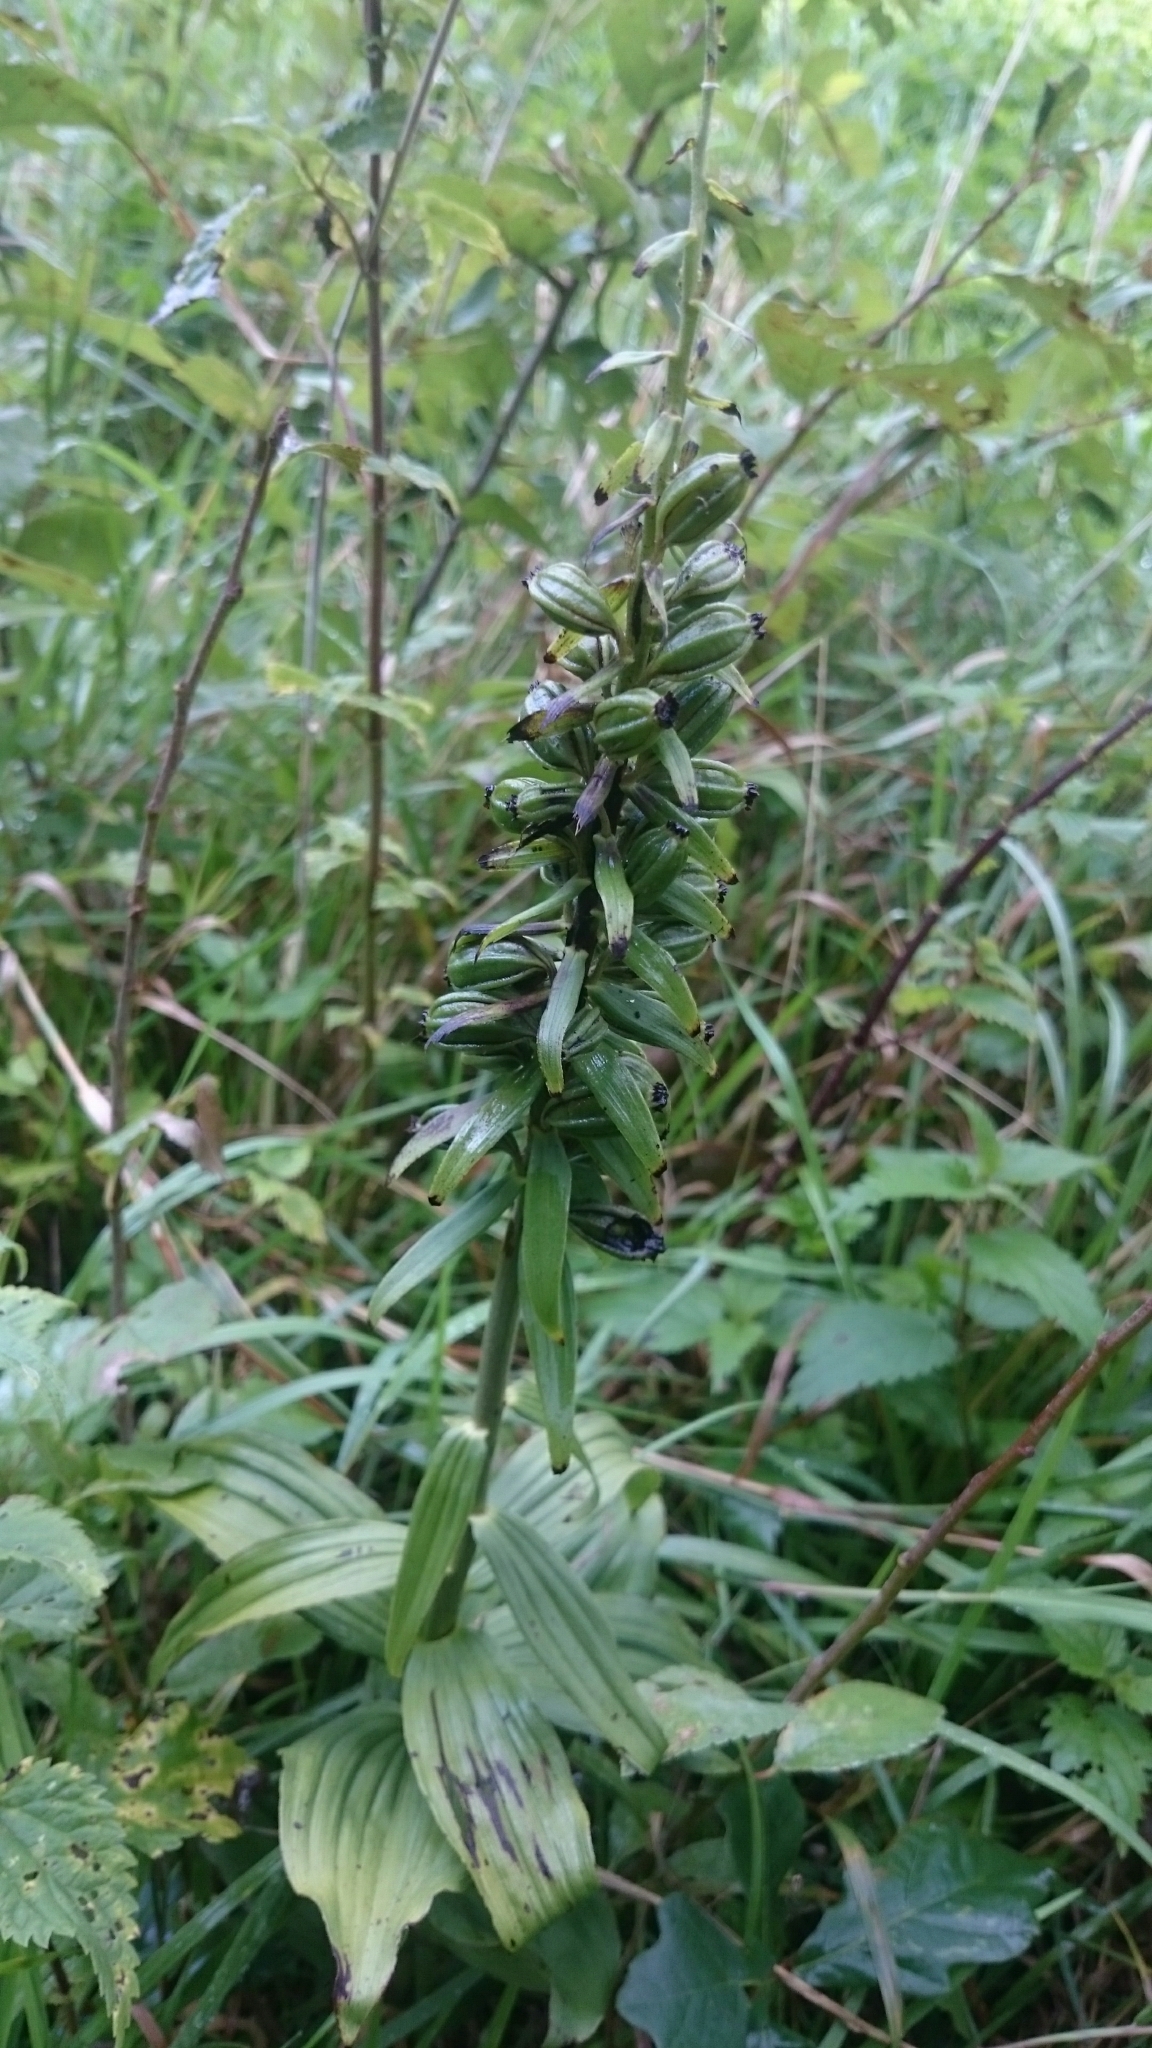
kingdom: Plantae
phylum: Tracheophyta
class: Liliopsida
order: Asparagales
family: Orchidaceae
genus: Epipactis
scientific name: Epipactis helleborine
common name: Broad-leaved helleborine
